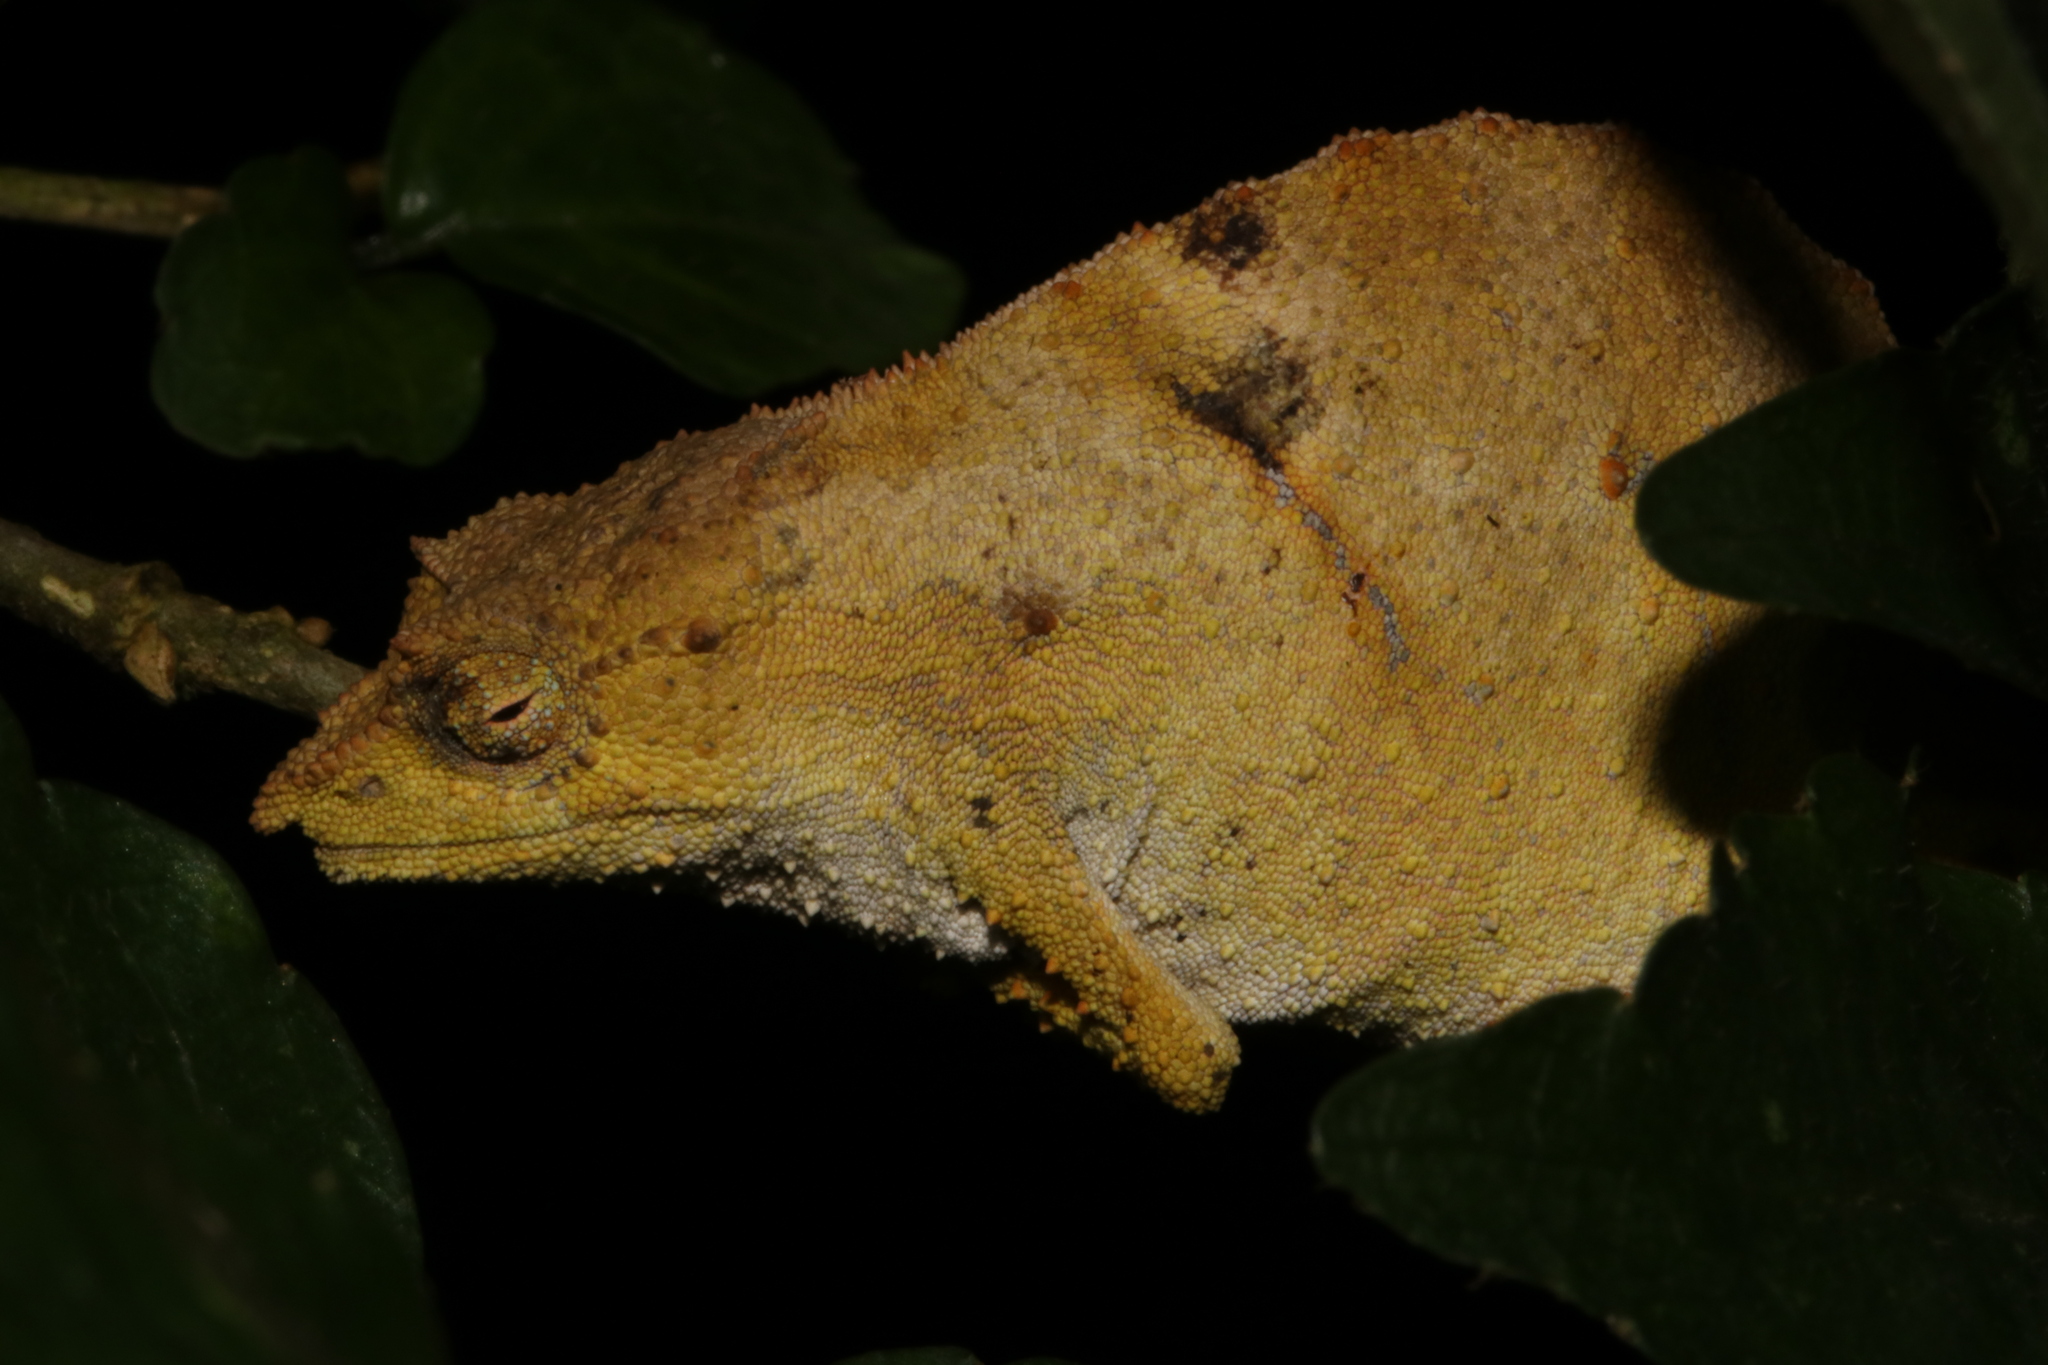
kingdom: Animalia
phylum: Chordata
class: Squamata
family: Chamaeleonidae
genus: Rhampholeon
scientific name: Rhampholeon nchisiensis
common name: South african stumptail chameleon
